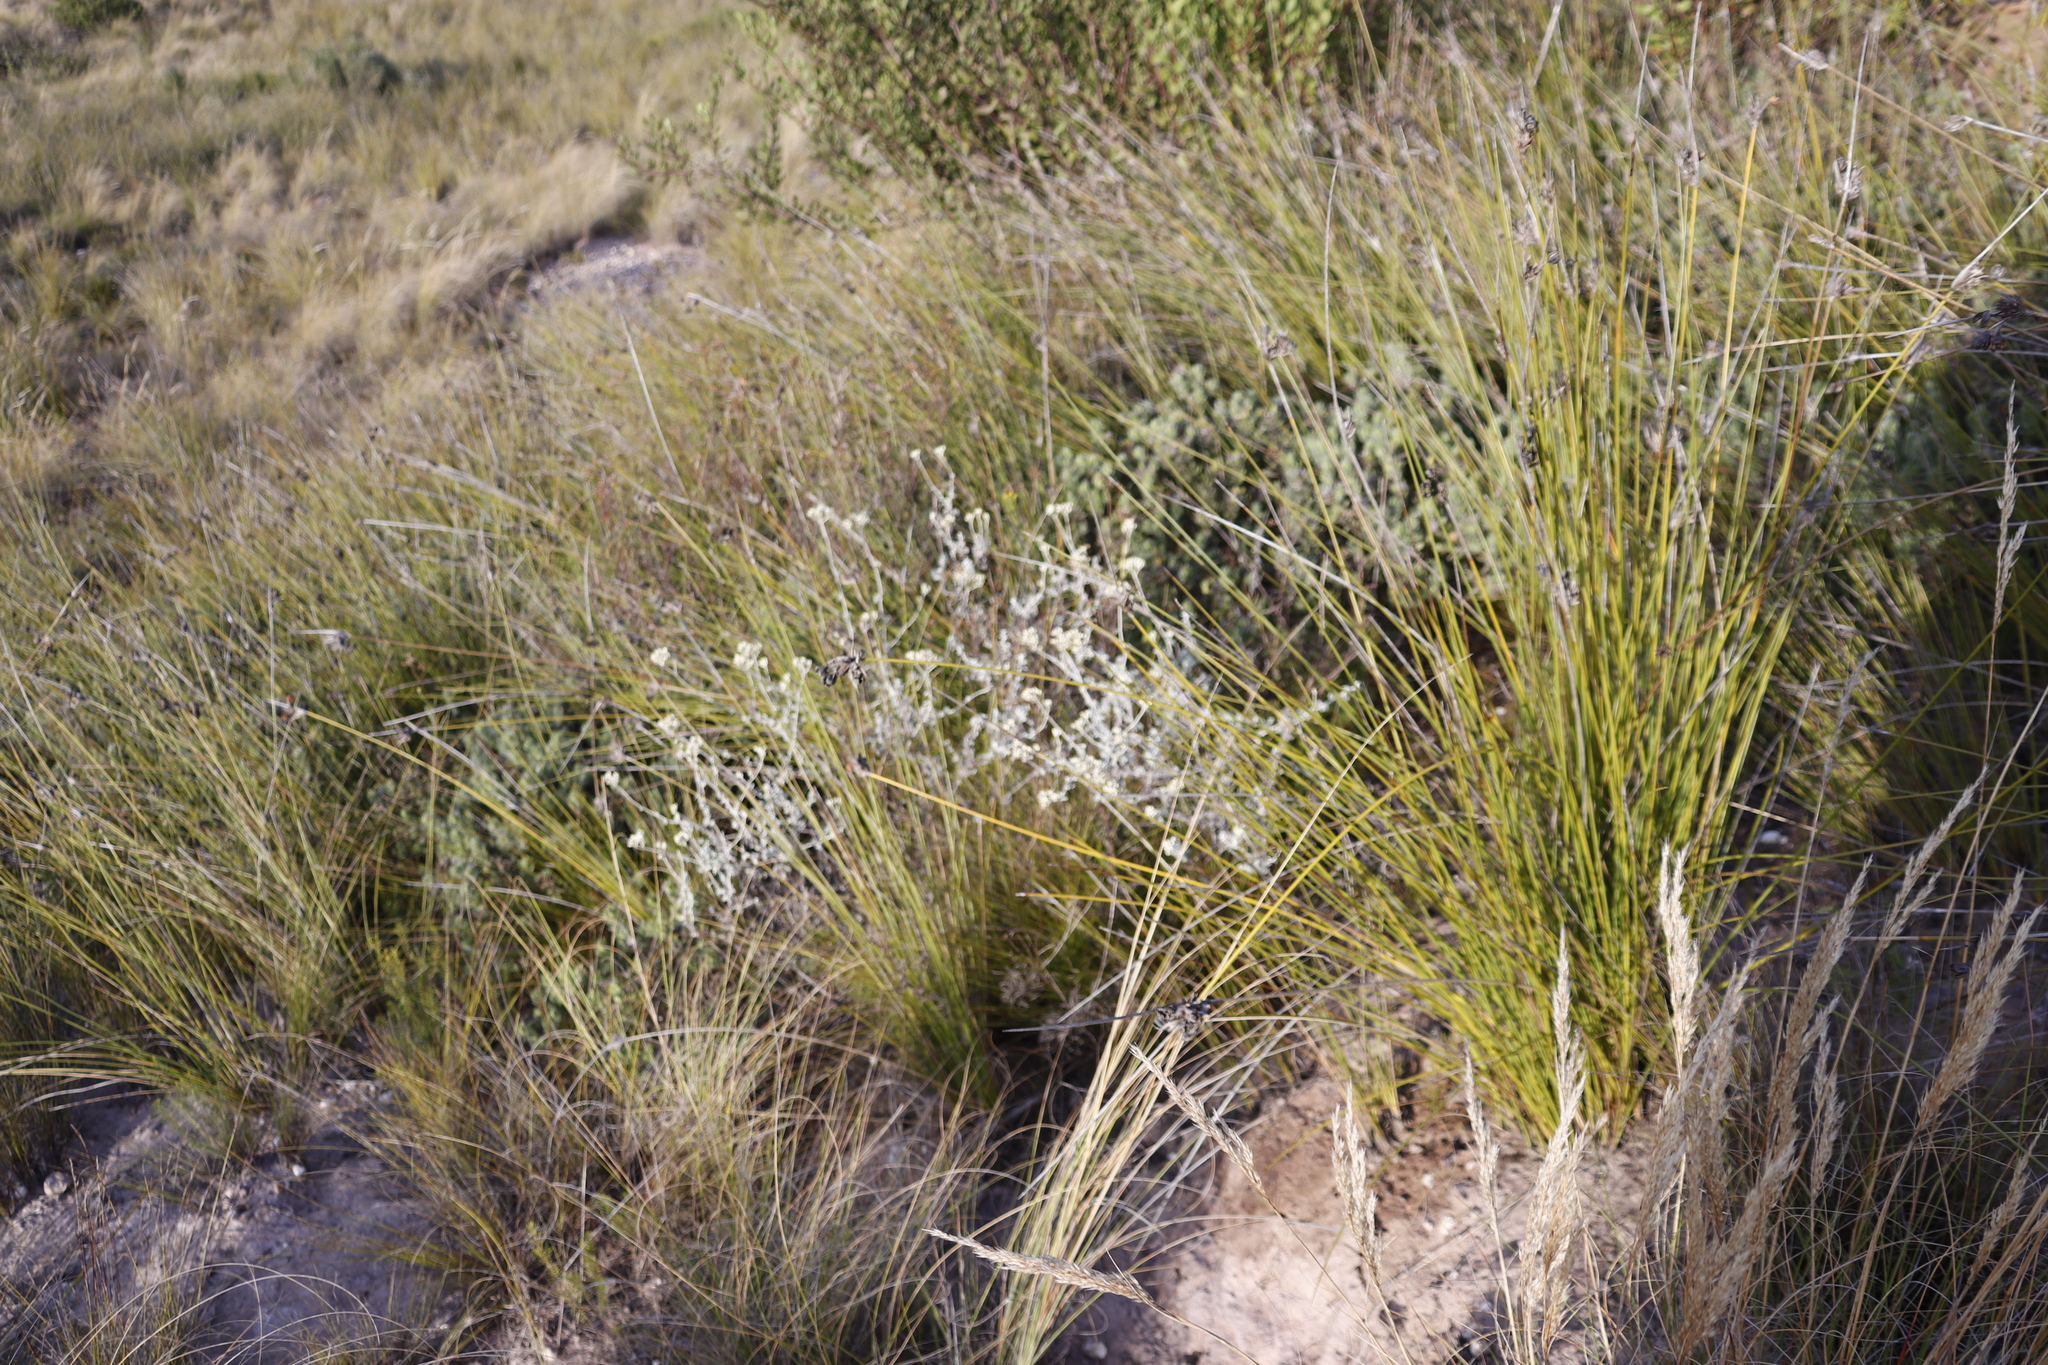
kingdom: Plantae
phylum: Tracheophyta
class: Magnoliopsida
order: Asterales
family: Asteraceae
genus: Helichrysum
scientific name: Helichrysum patulum
